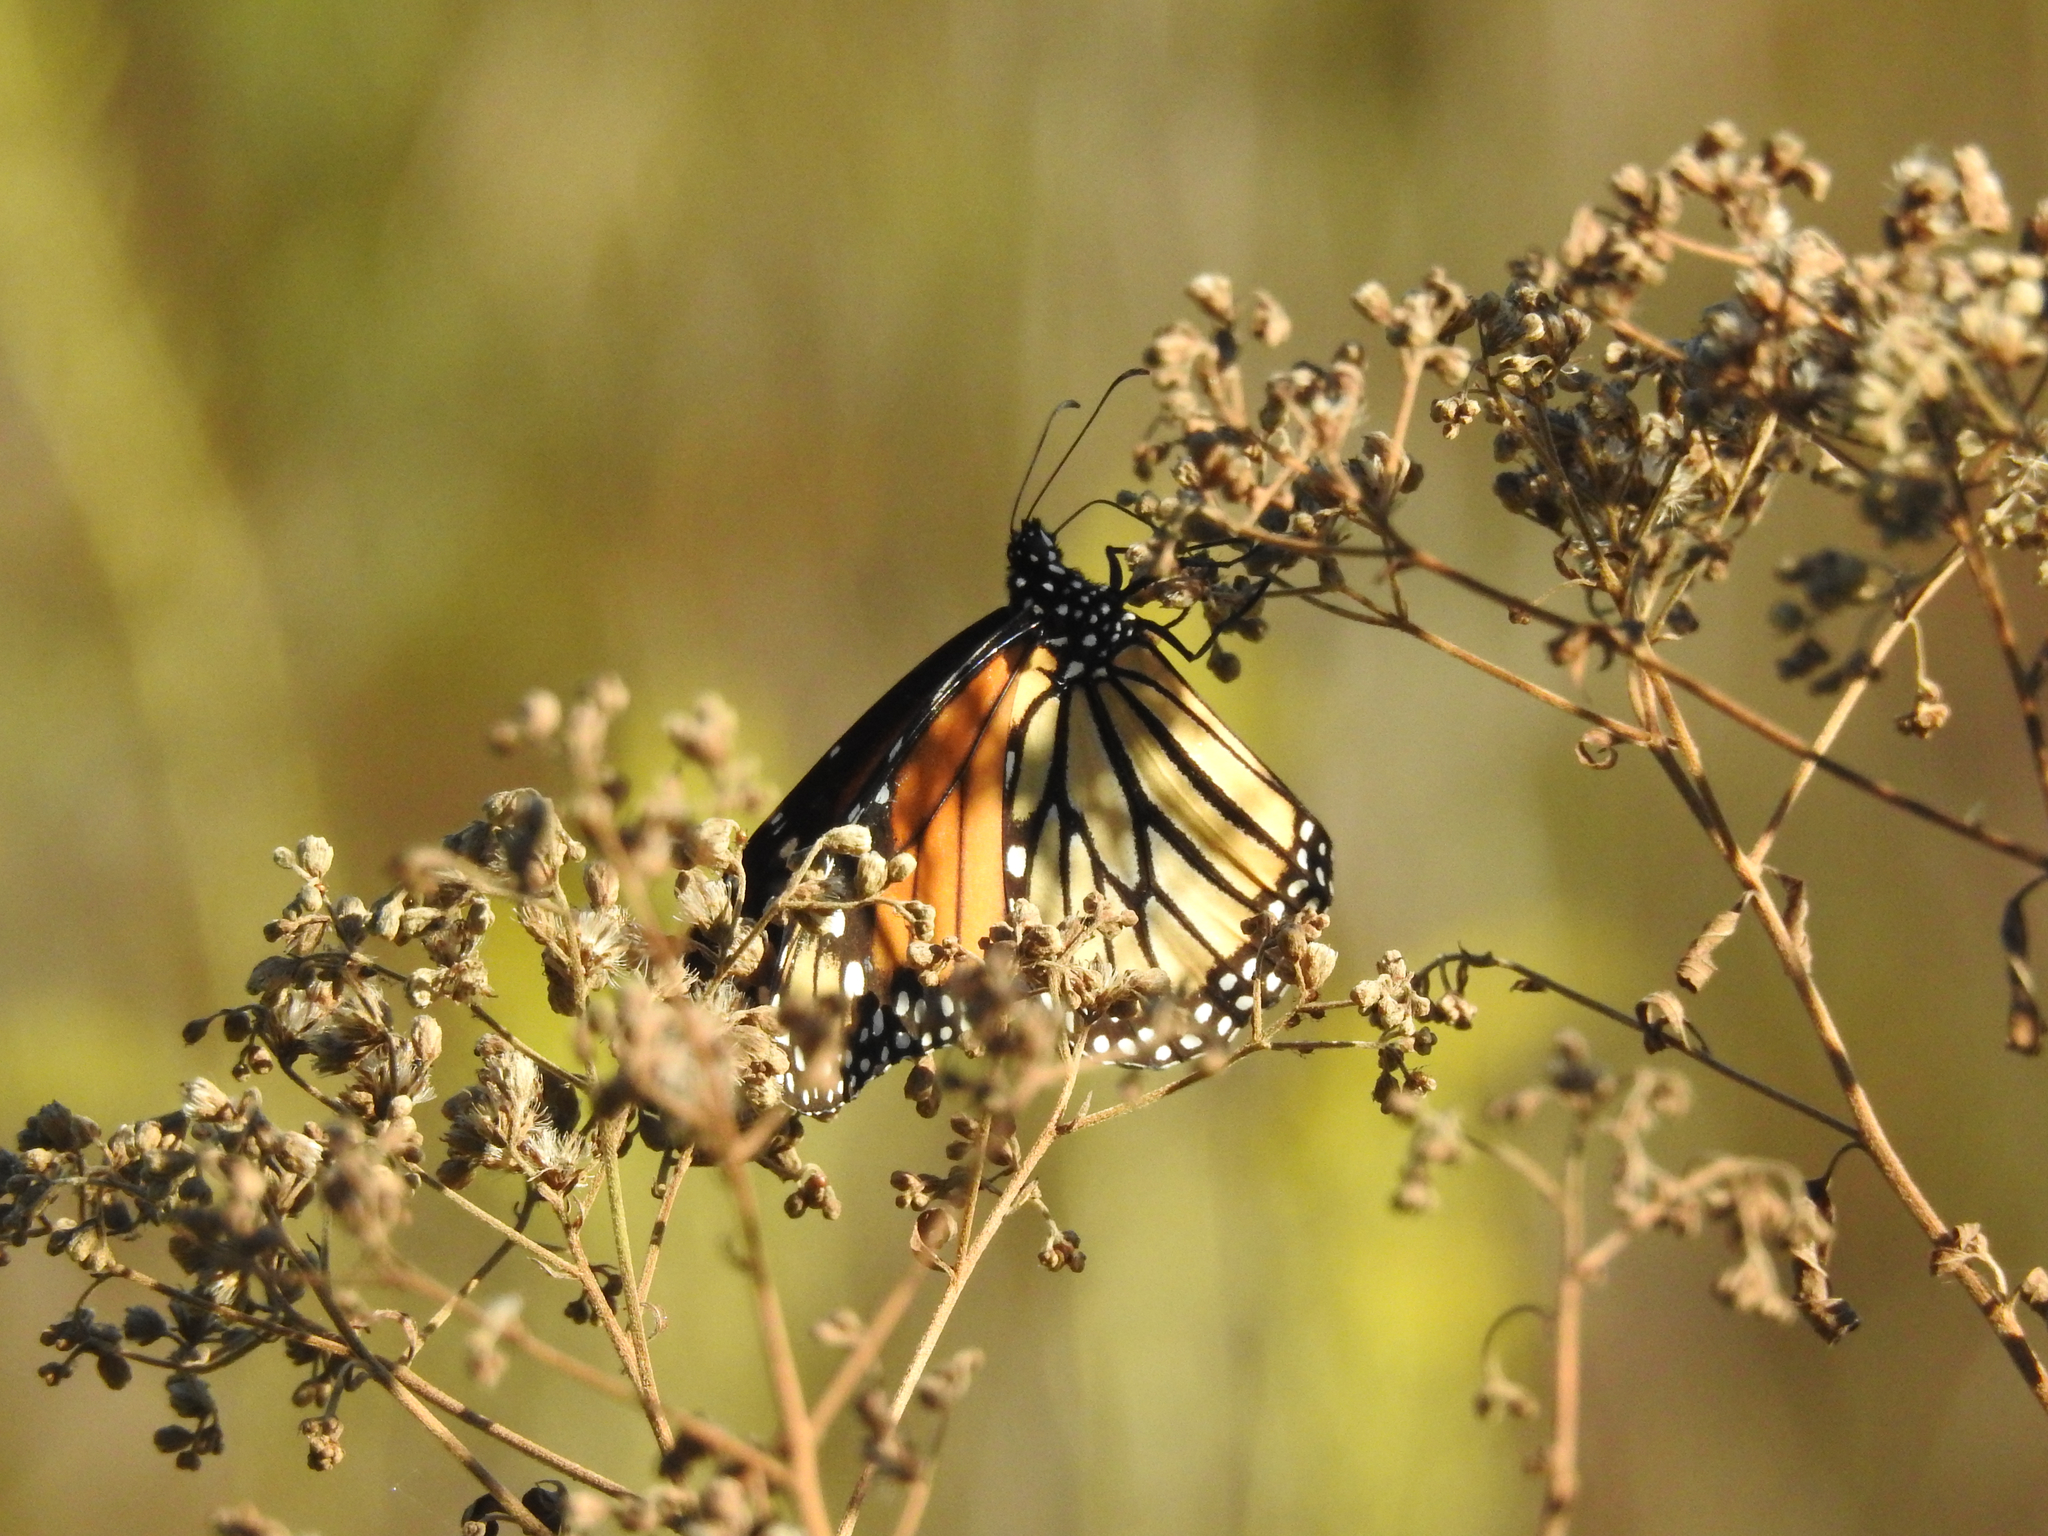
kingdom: Animalia
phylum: Arthropoda
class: Insecta
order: Lepidoptera
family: Nymphalidae
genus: Danaus
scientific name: Danaus plexippus
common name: Monarch
